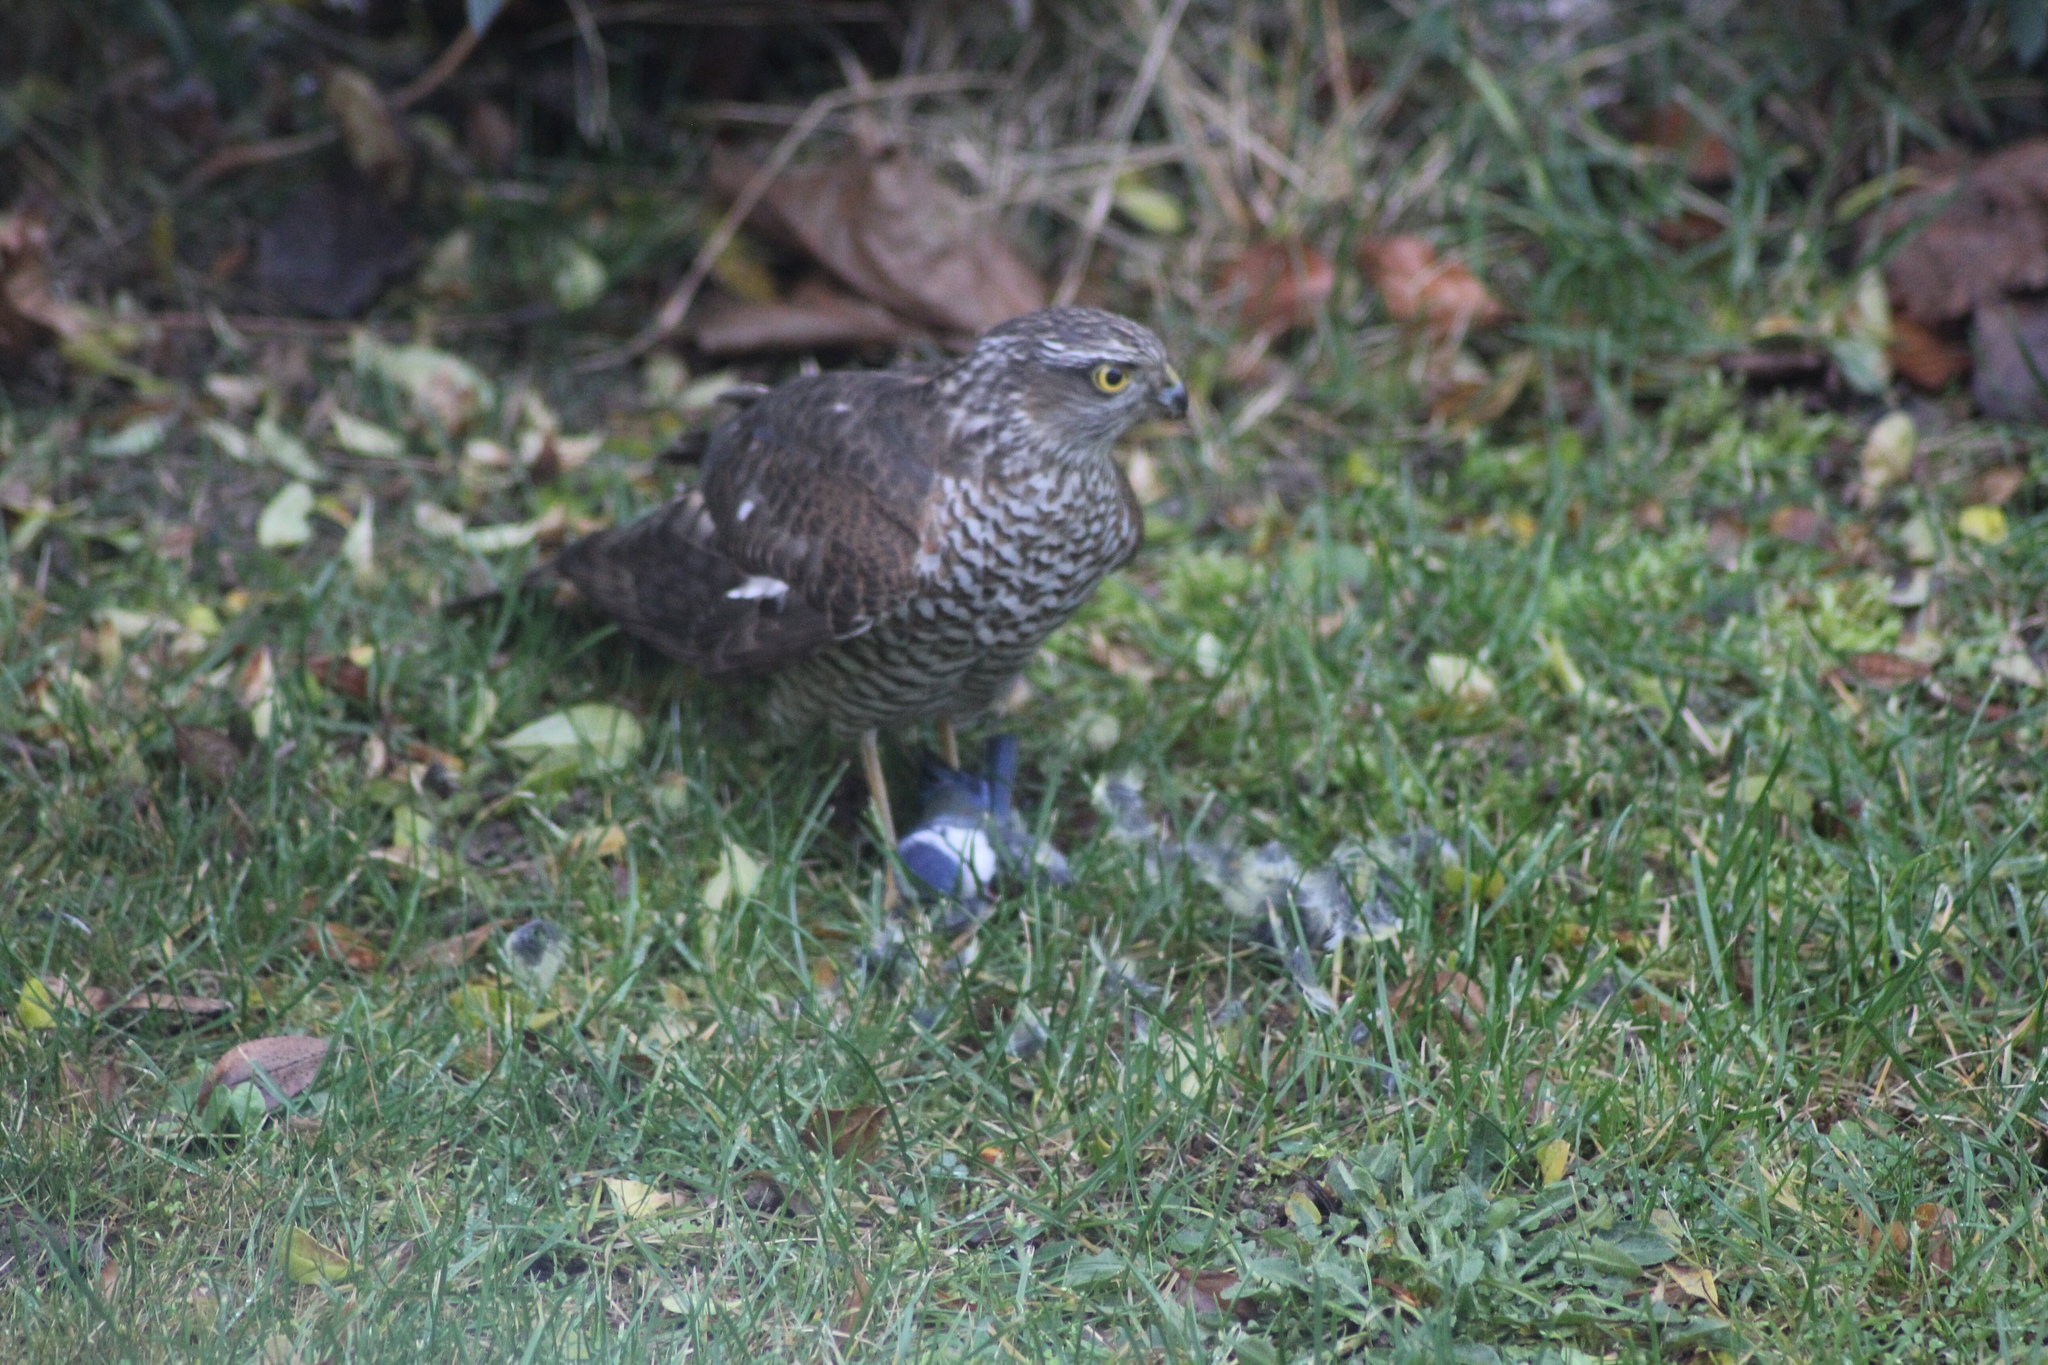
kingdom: Animalia
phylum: Chordata
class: Aves
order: Accipitriformes
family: Accipitridae
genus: Accipiter
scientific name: Accipiter nisus
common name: Eurasian sparrowhawk
